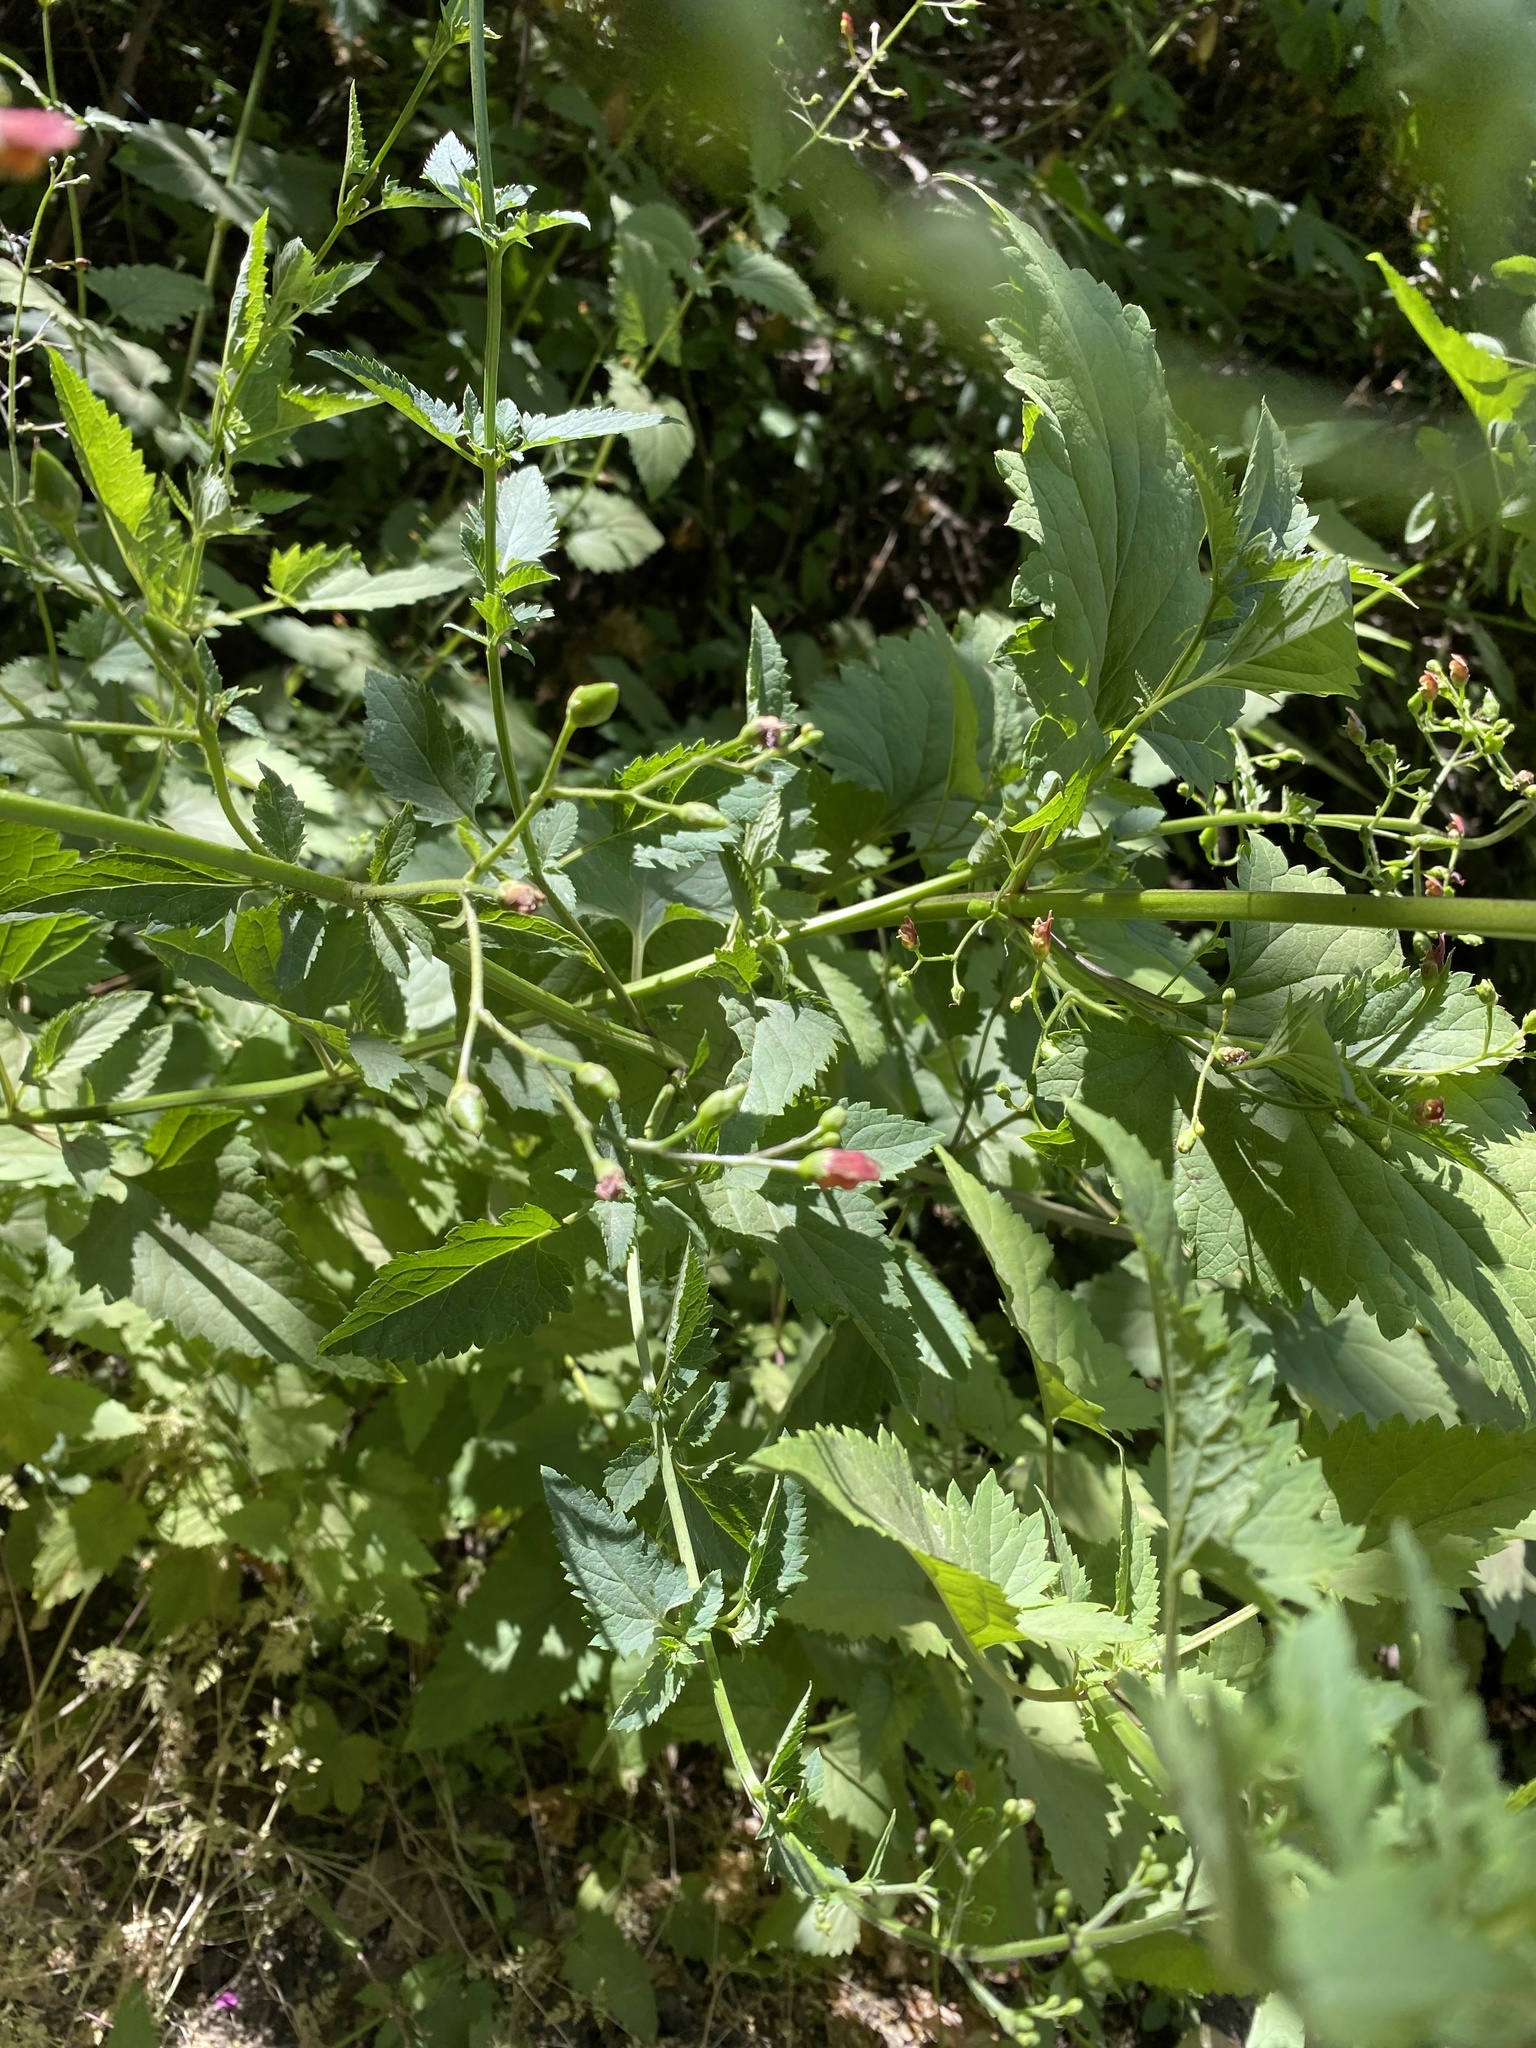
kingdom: Plantae
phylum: Tracheophyta
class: Magnoliopsida
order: Lamiales
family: Scrophulariaceae
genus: Scrophularia
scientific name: Scrophularia californica
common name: California figwort
